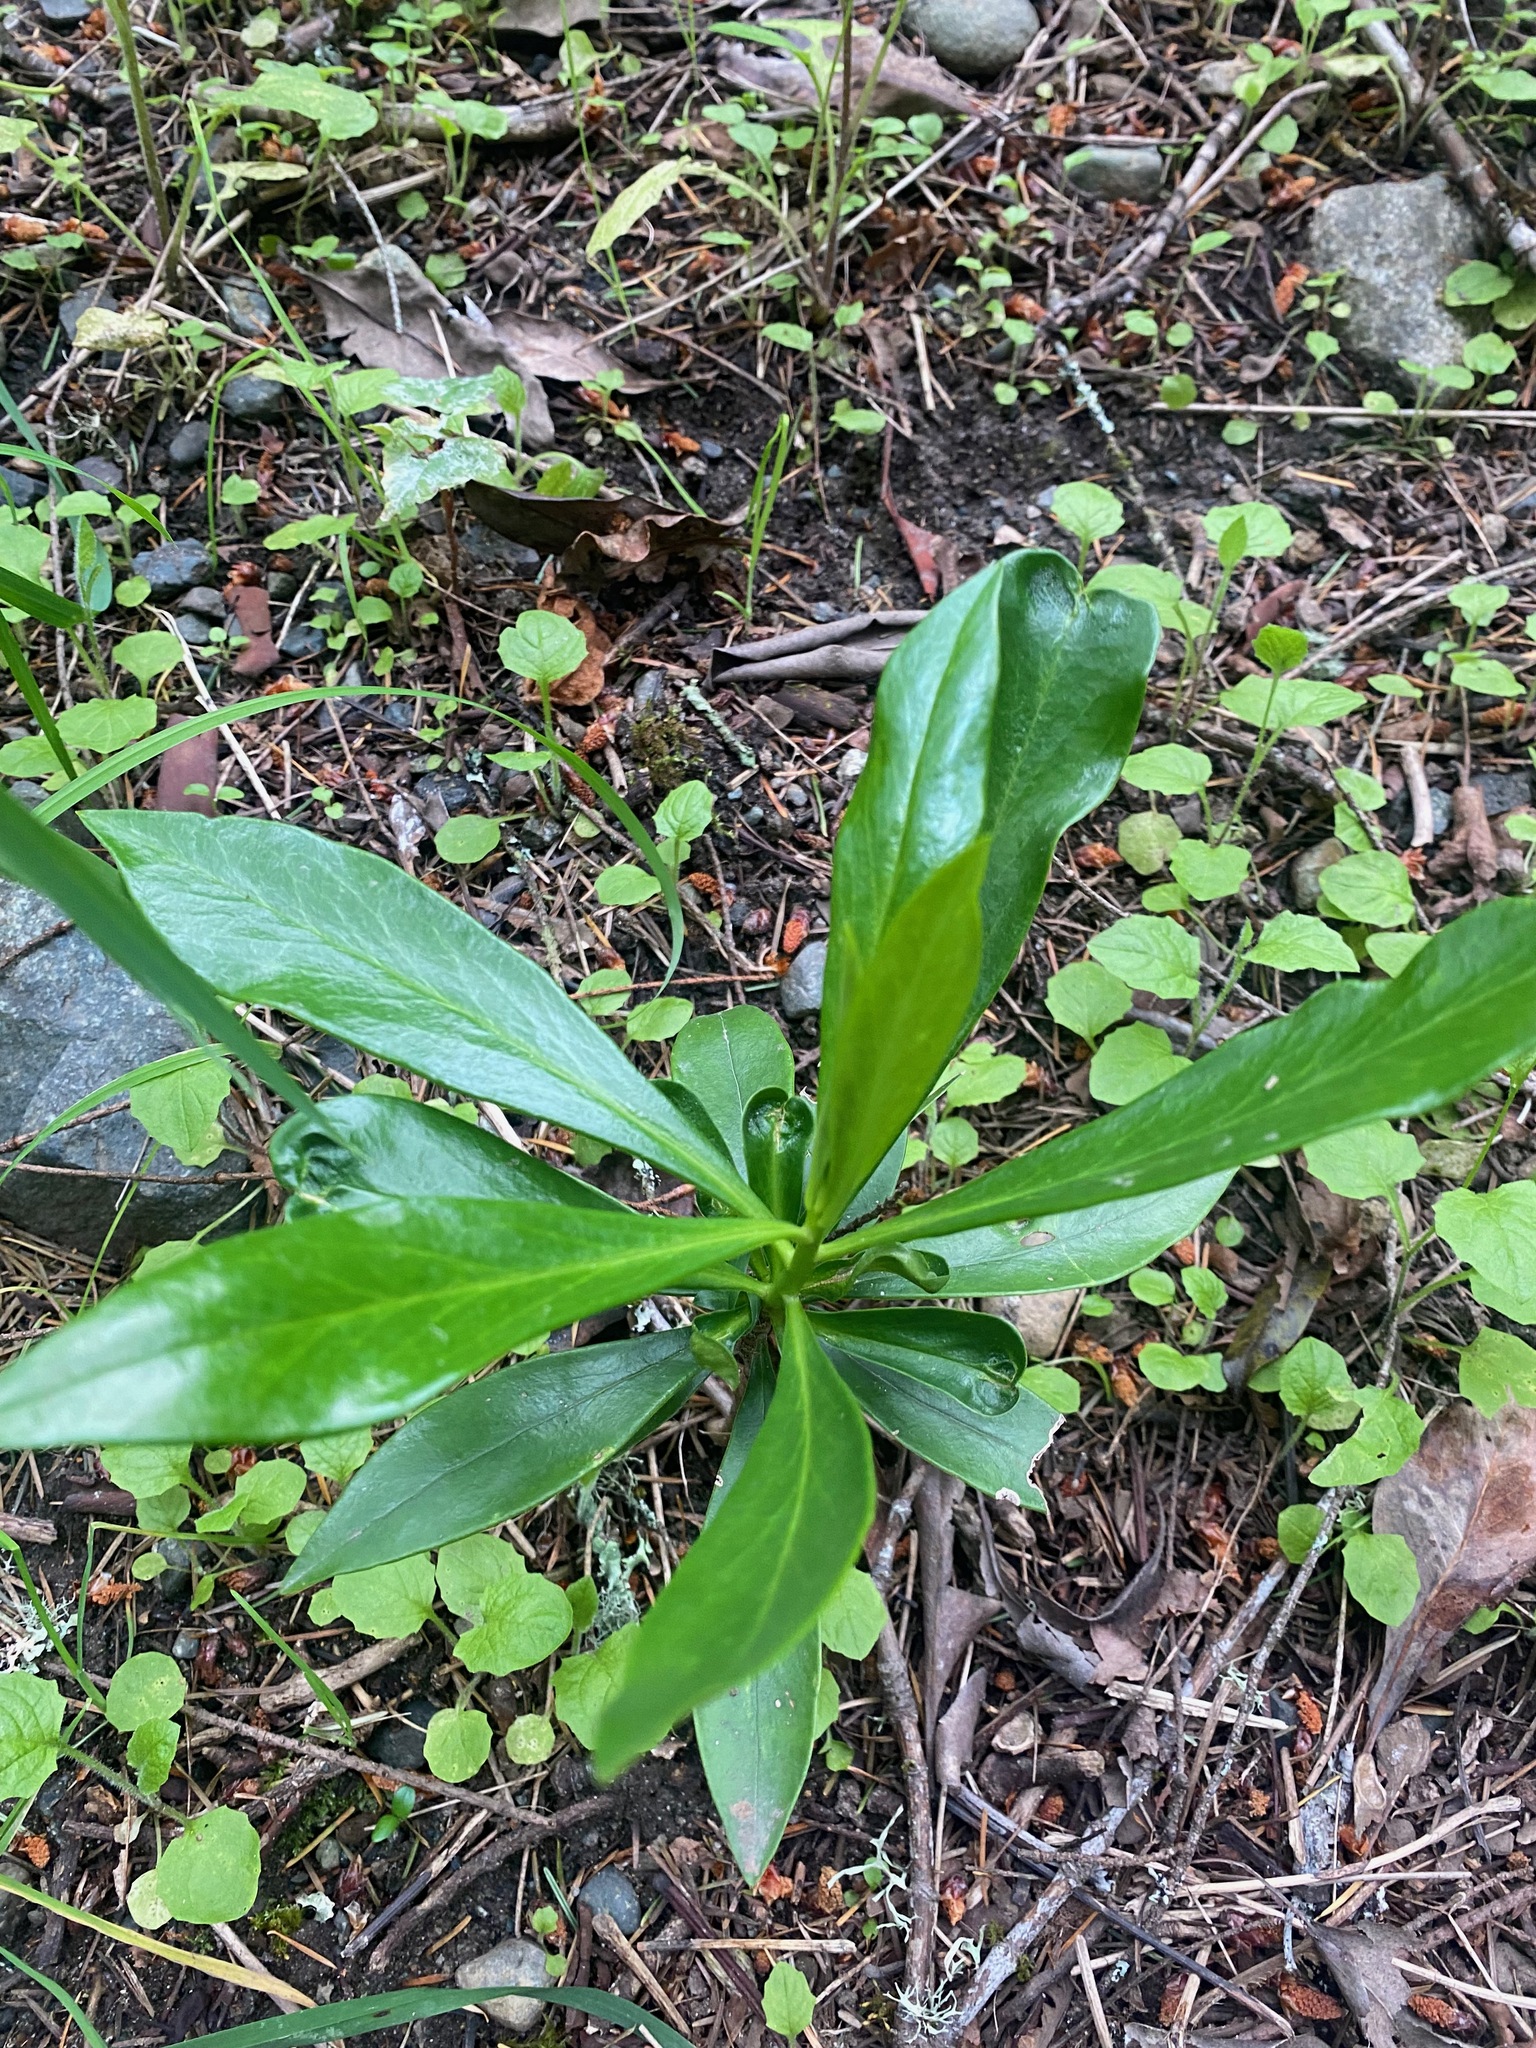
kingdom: Plantae
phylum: Tracheophyta
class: Magnoliopsida
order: Malvales
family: Thymelaeaceae
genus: Daphne
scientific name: Daphne laureola
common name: Spurge-laurel
